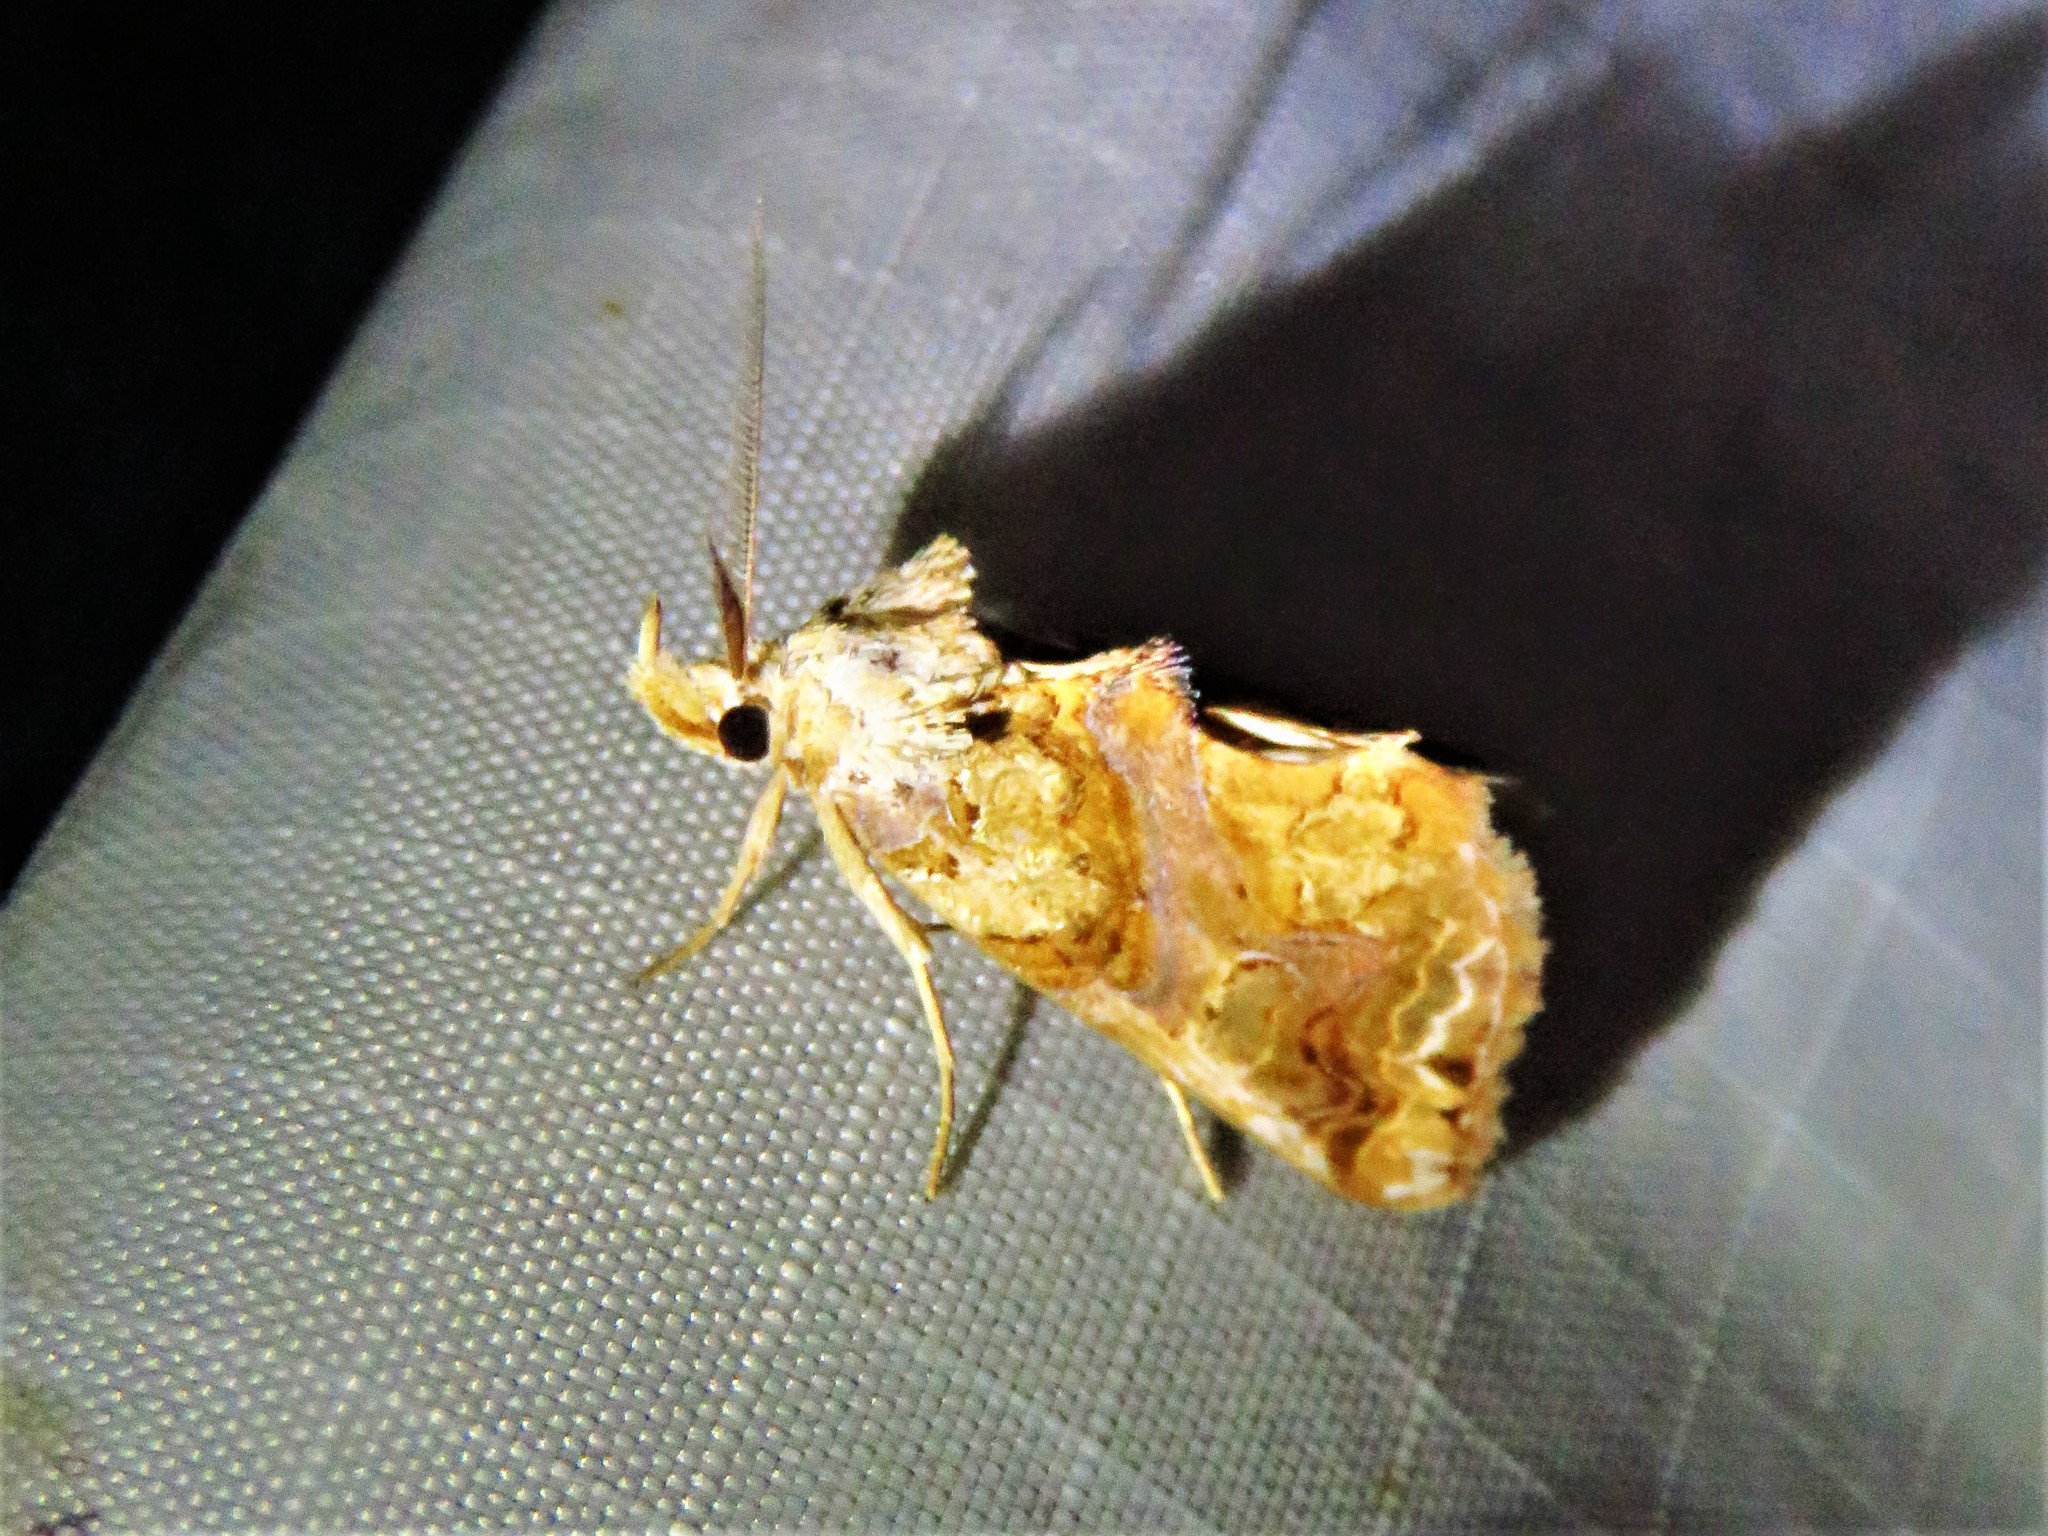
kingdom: Animalia
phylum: Arthropoda
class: Insecta
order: Lepidoptera
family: Erebidae
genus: Plusiodonta
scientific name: Plusiodonta compressipalpis
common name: Moonseed moth
